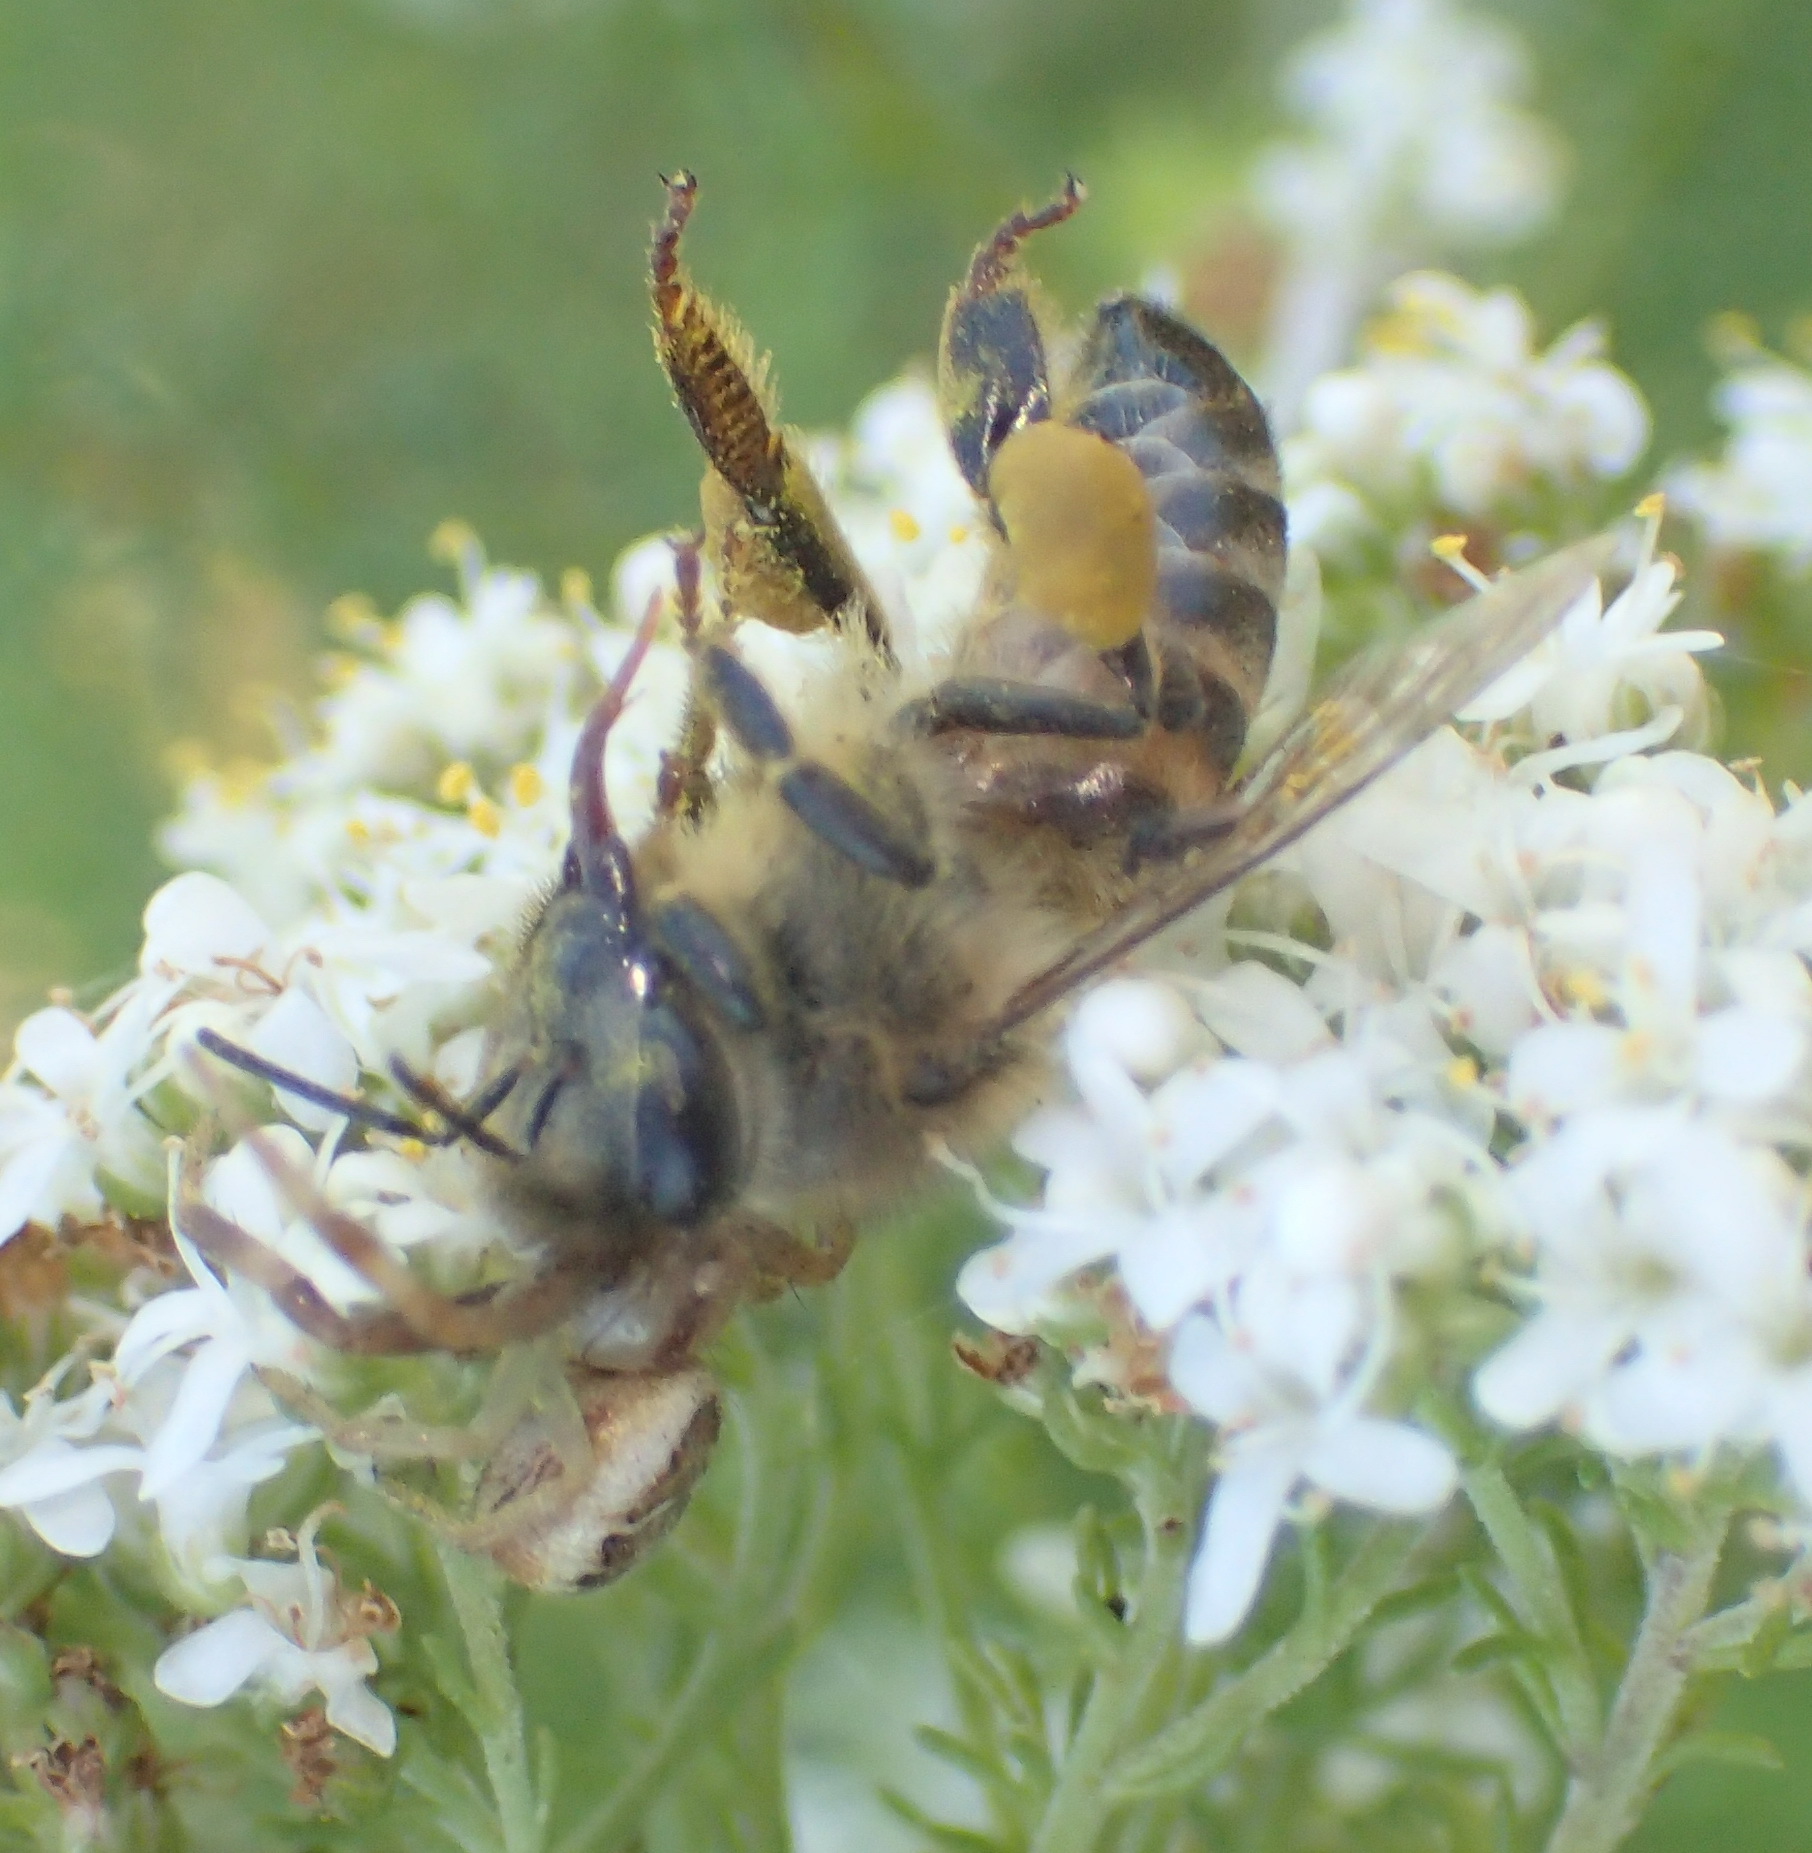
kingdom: Animalia
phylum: Arthropoda
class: Insecta
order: Hymenoptera
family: Apidae
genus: Apis
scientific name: Apis mellifera
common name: Honey bee
